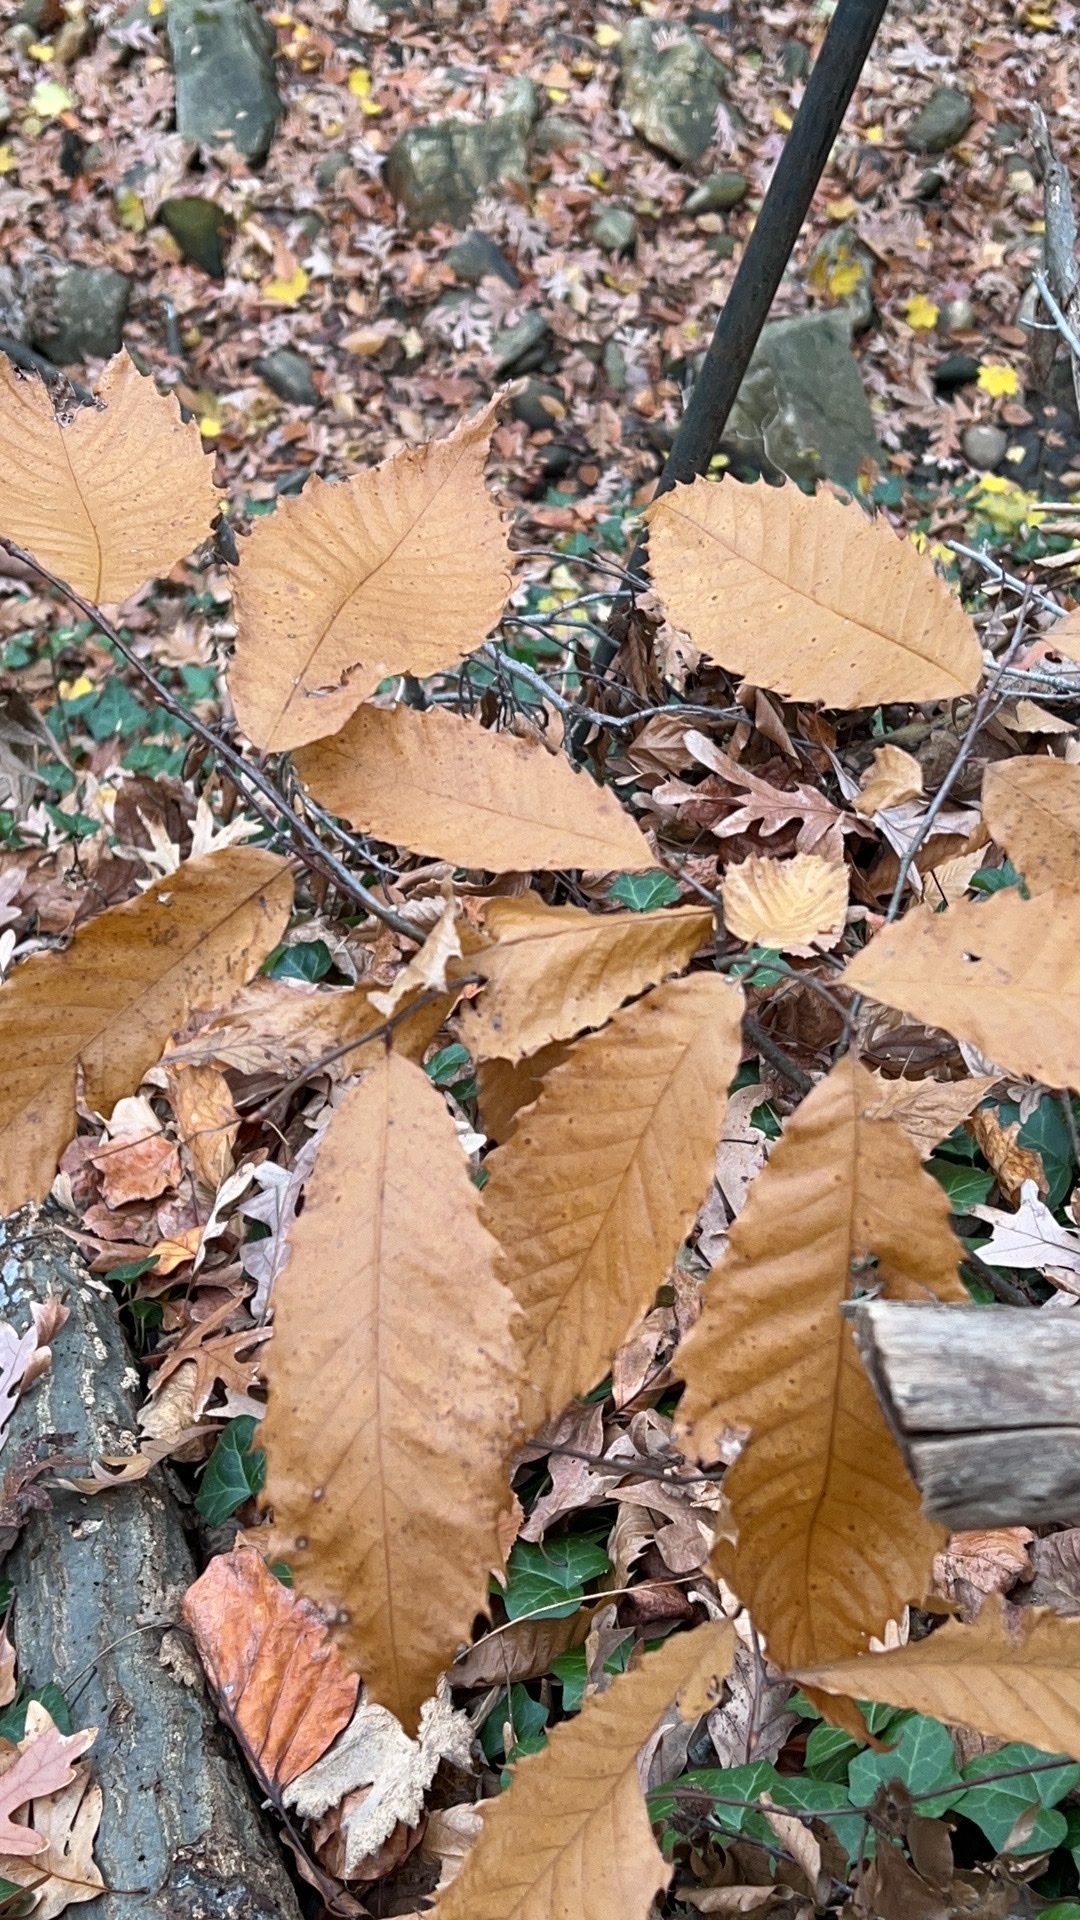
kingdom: Plantae
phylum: Tracheophyta
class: Magnoliopsida
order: Fagales
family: Fagaceae
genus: Castanea
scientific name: Castanea dentata
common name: American chestnut
